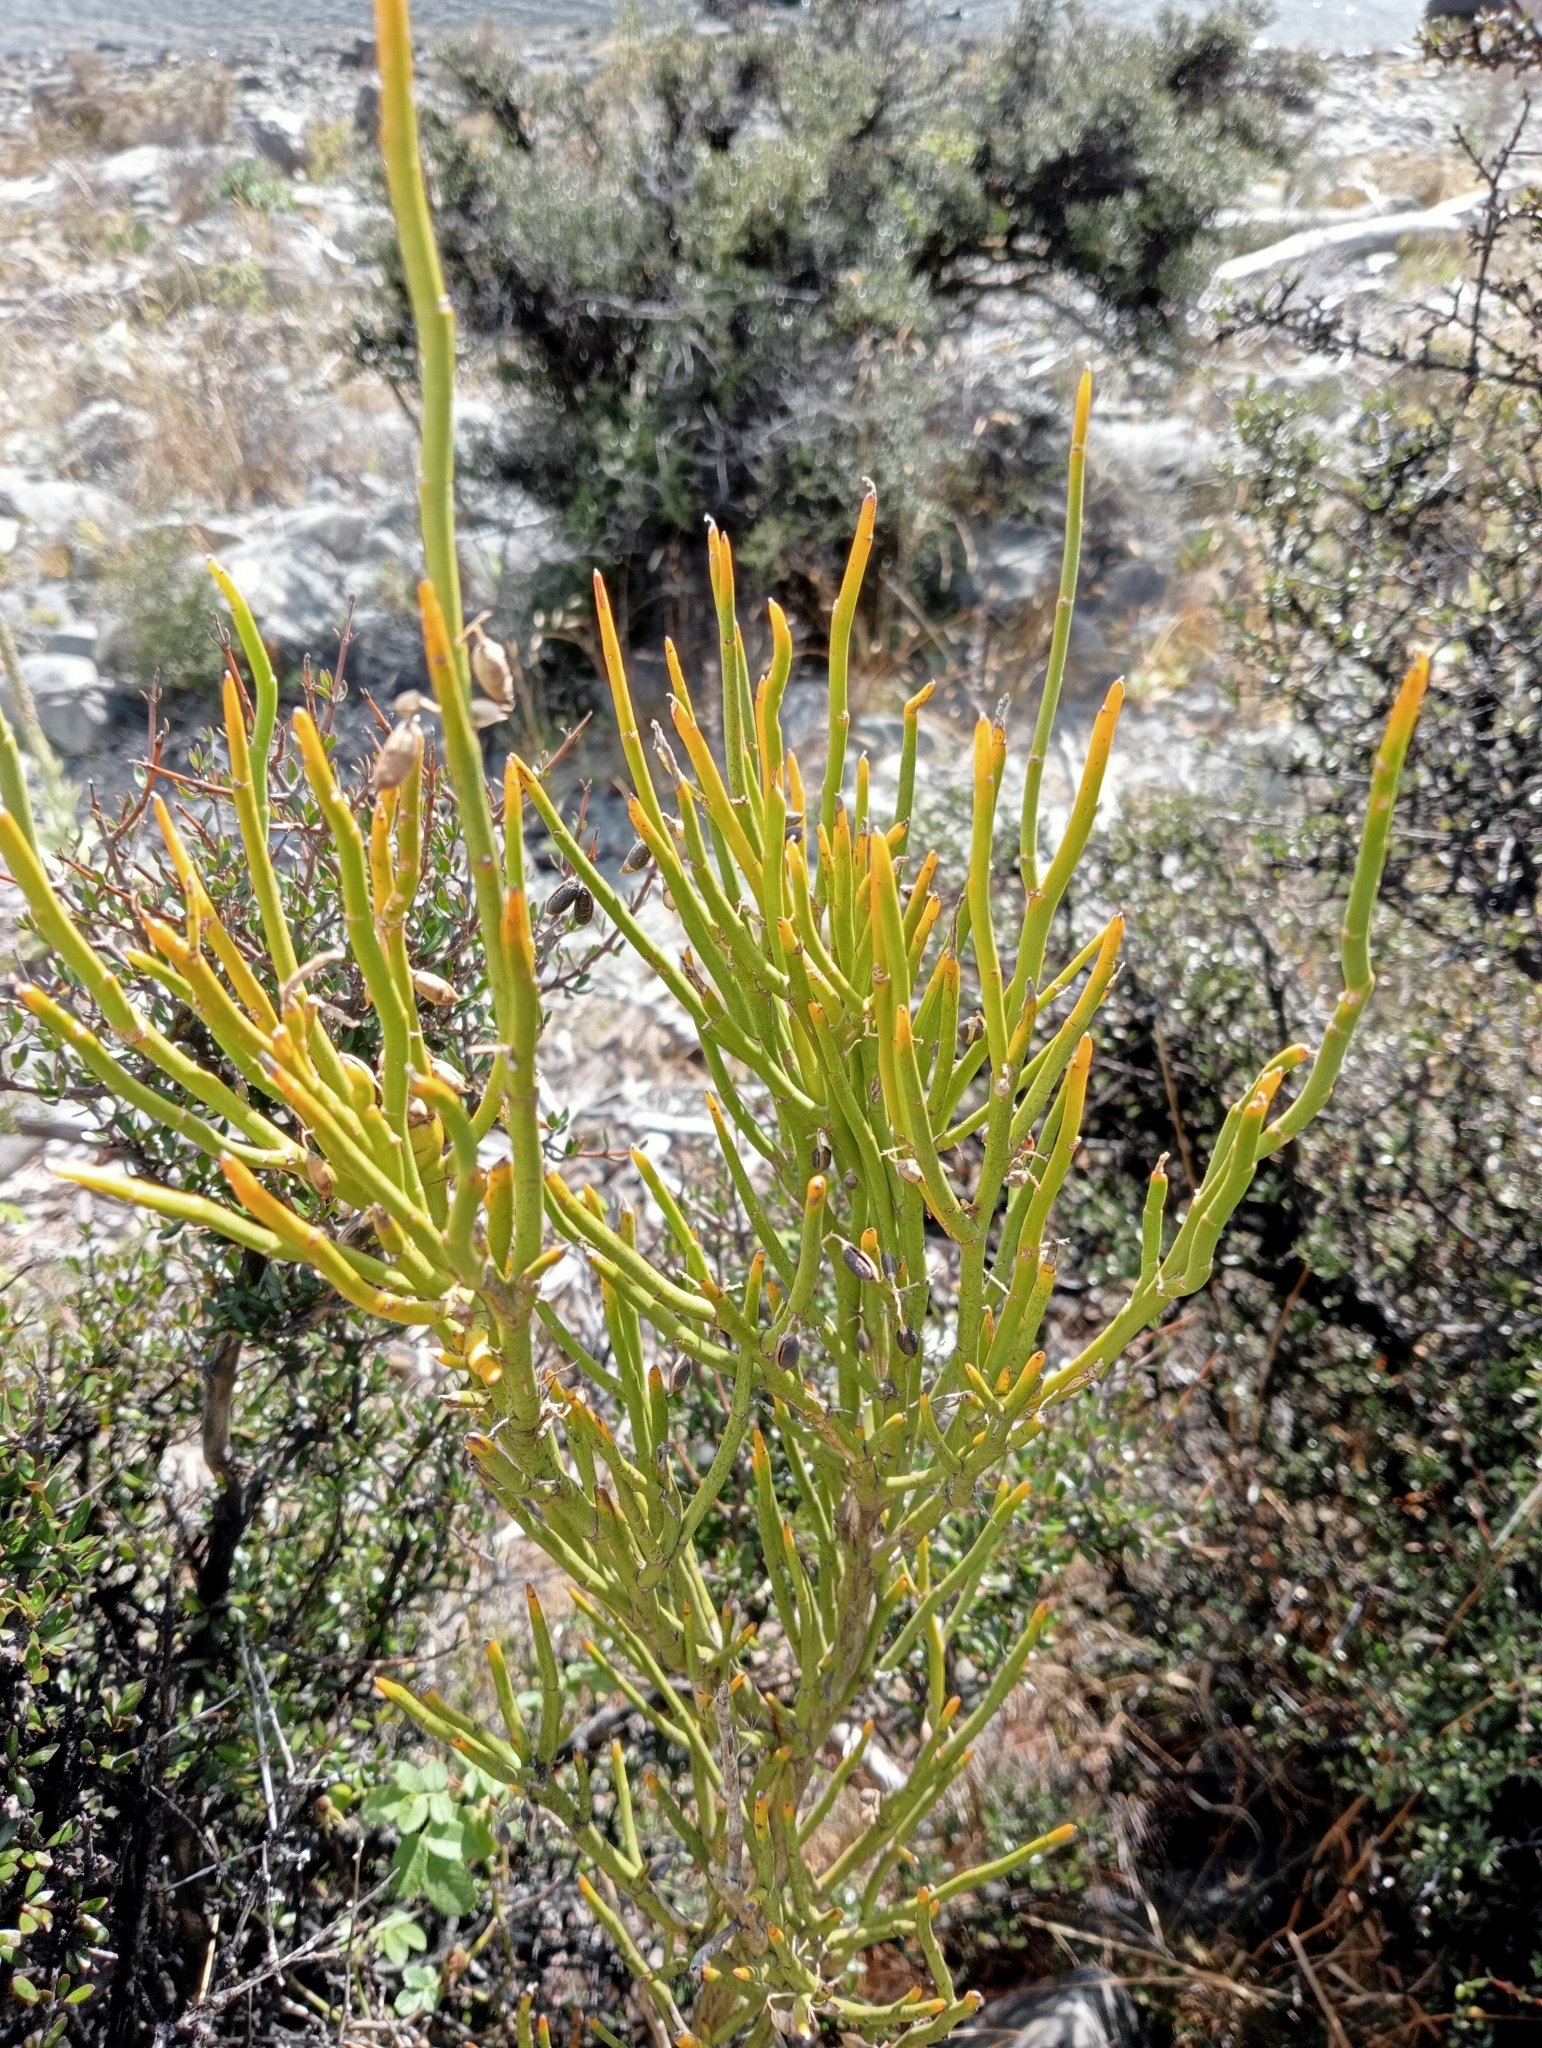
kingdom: Plantae
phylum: Tracheophyta
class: Magnoliopsida
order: Fabales
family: Fabaceae
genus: Carmichaelia
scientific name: Carmichaelia petriei
